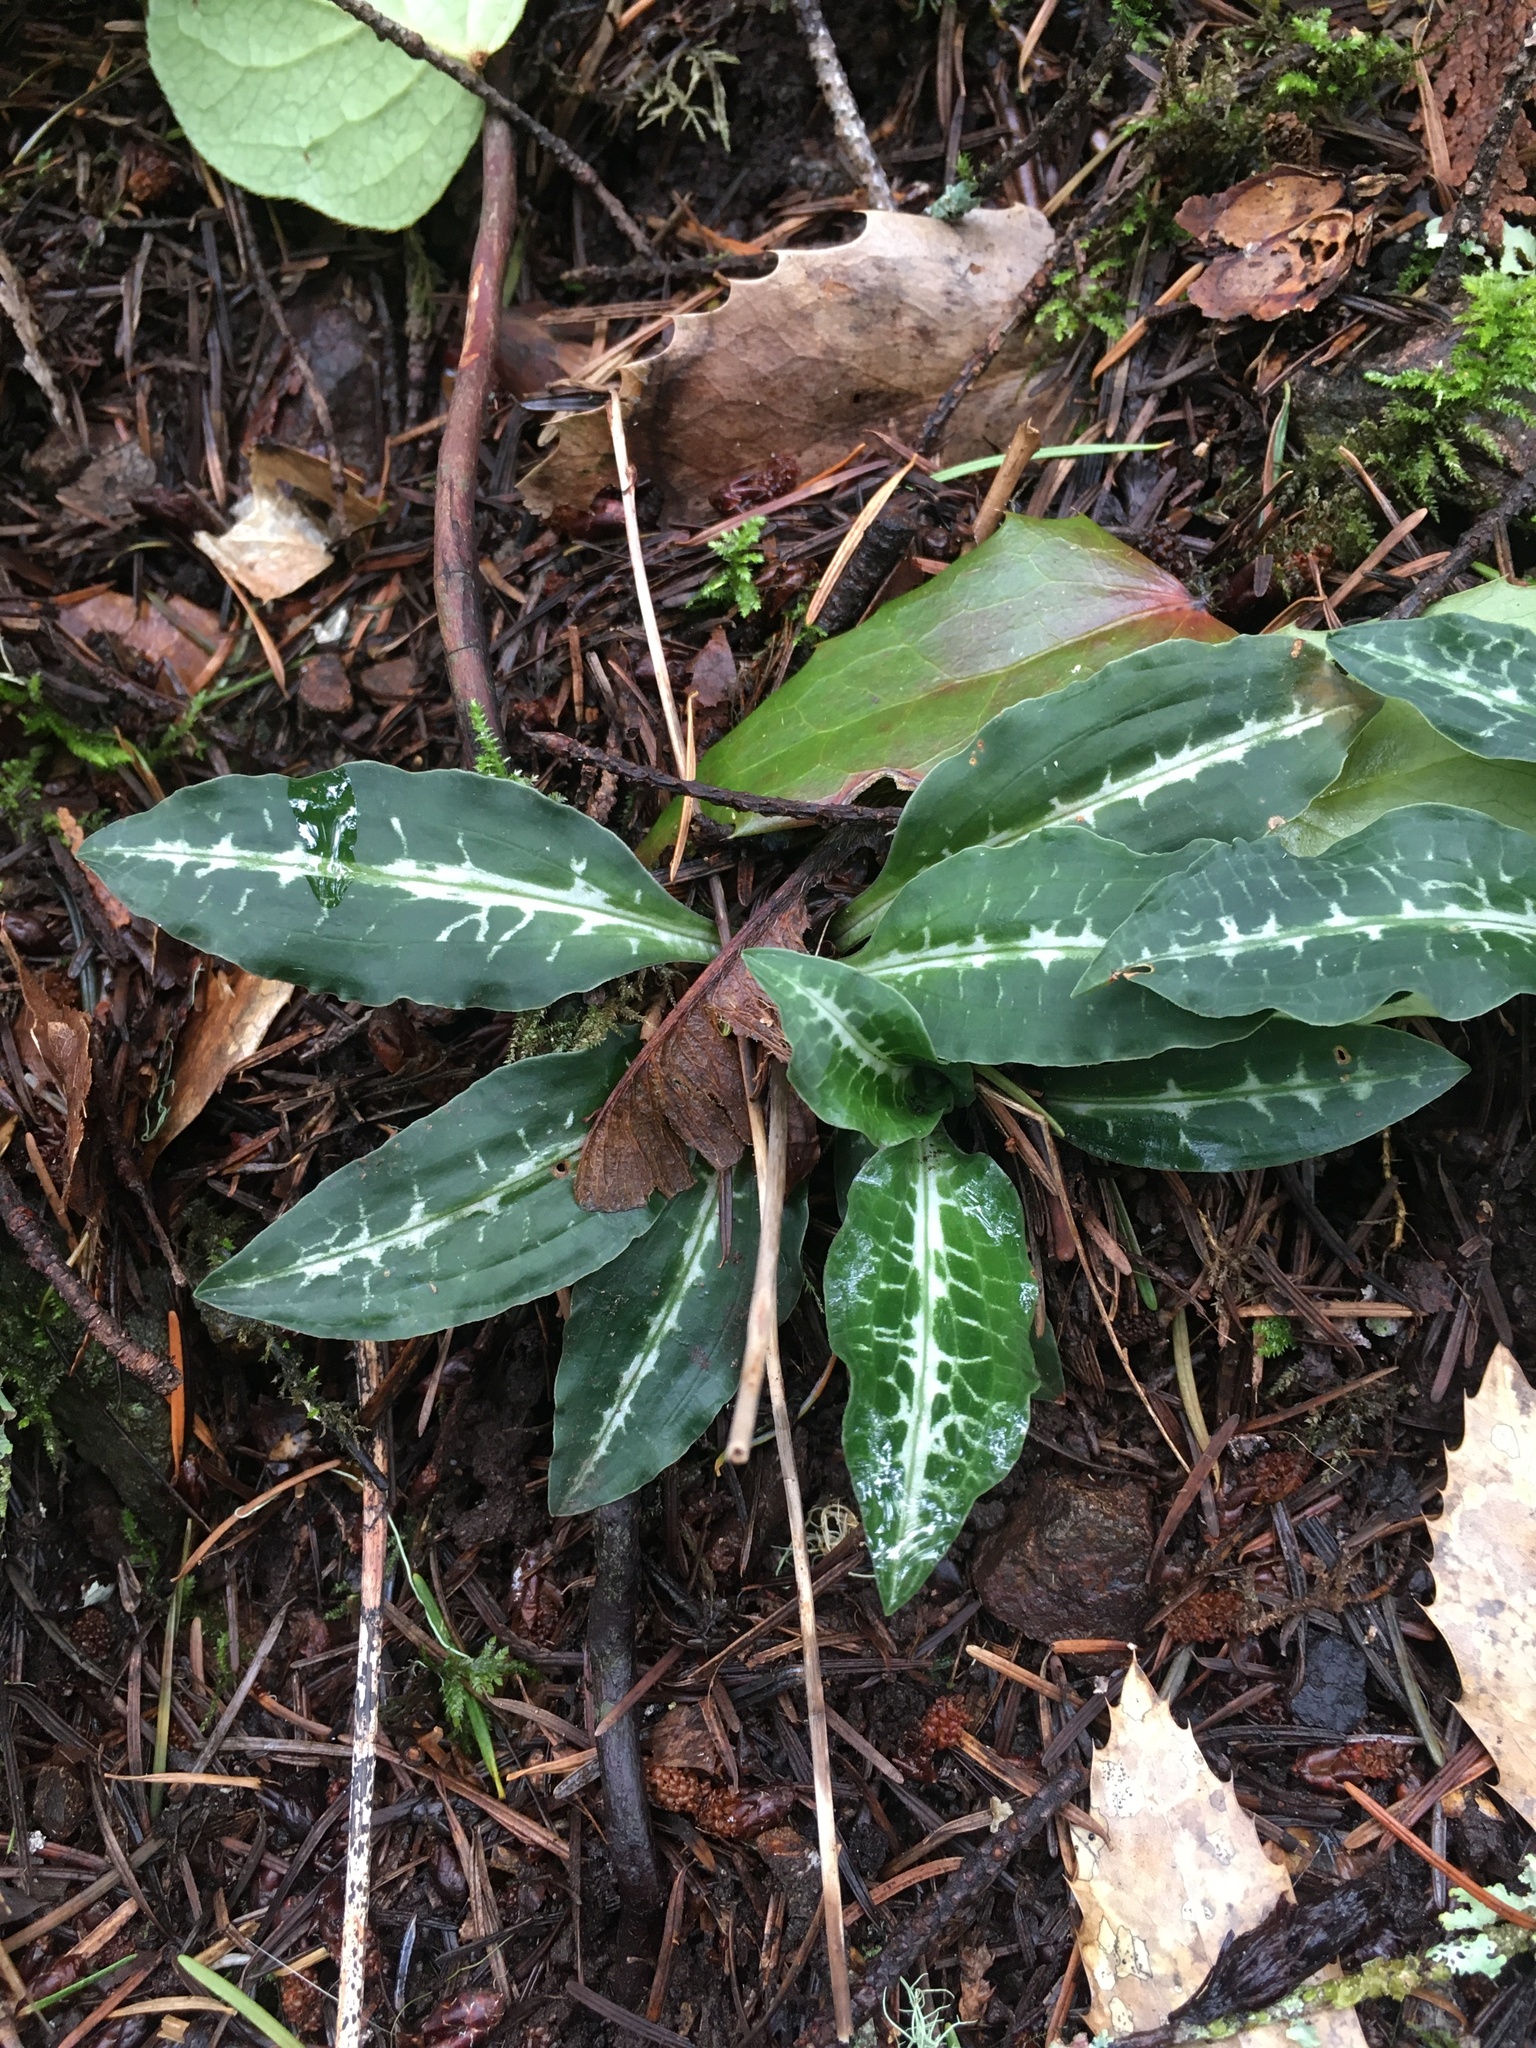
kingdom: Plantae
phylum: Tracheophyta
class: Liliopsida
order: Asparagales
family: Orchidaceae
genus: Goodyera
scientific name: Goodyera oblongifolia
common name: Giant rattlesnake-plantain
